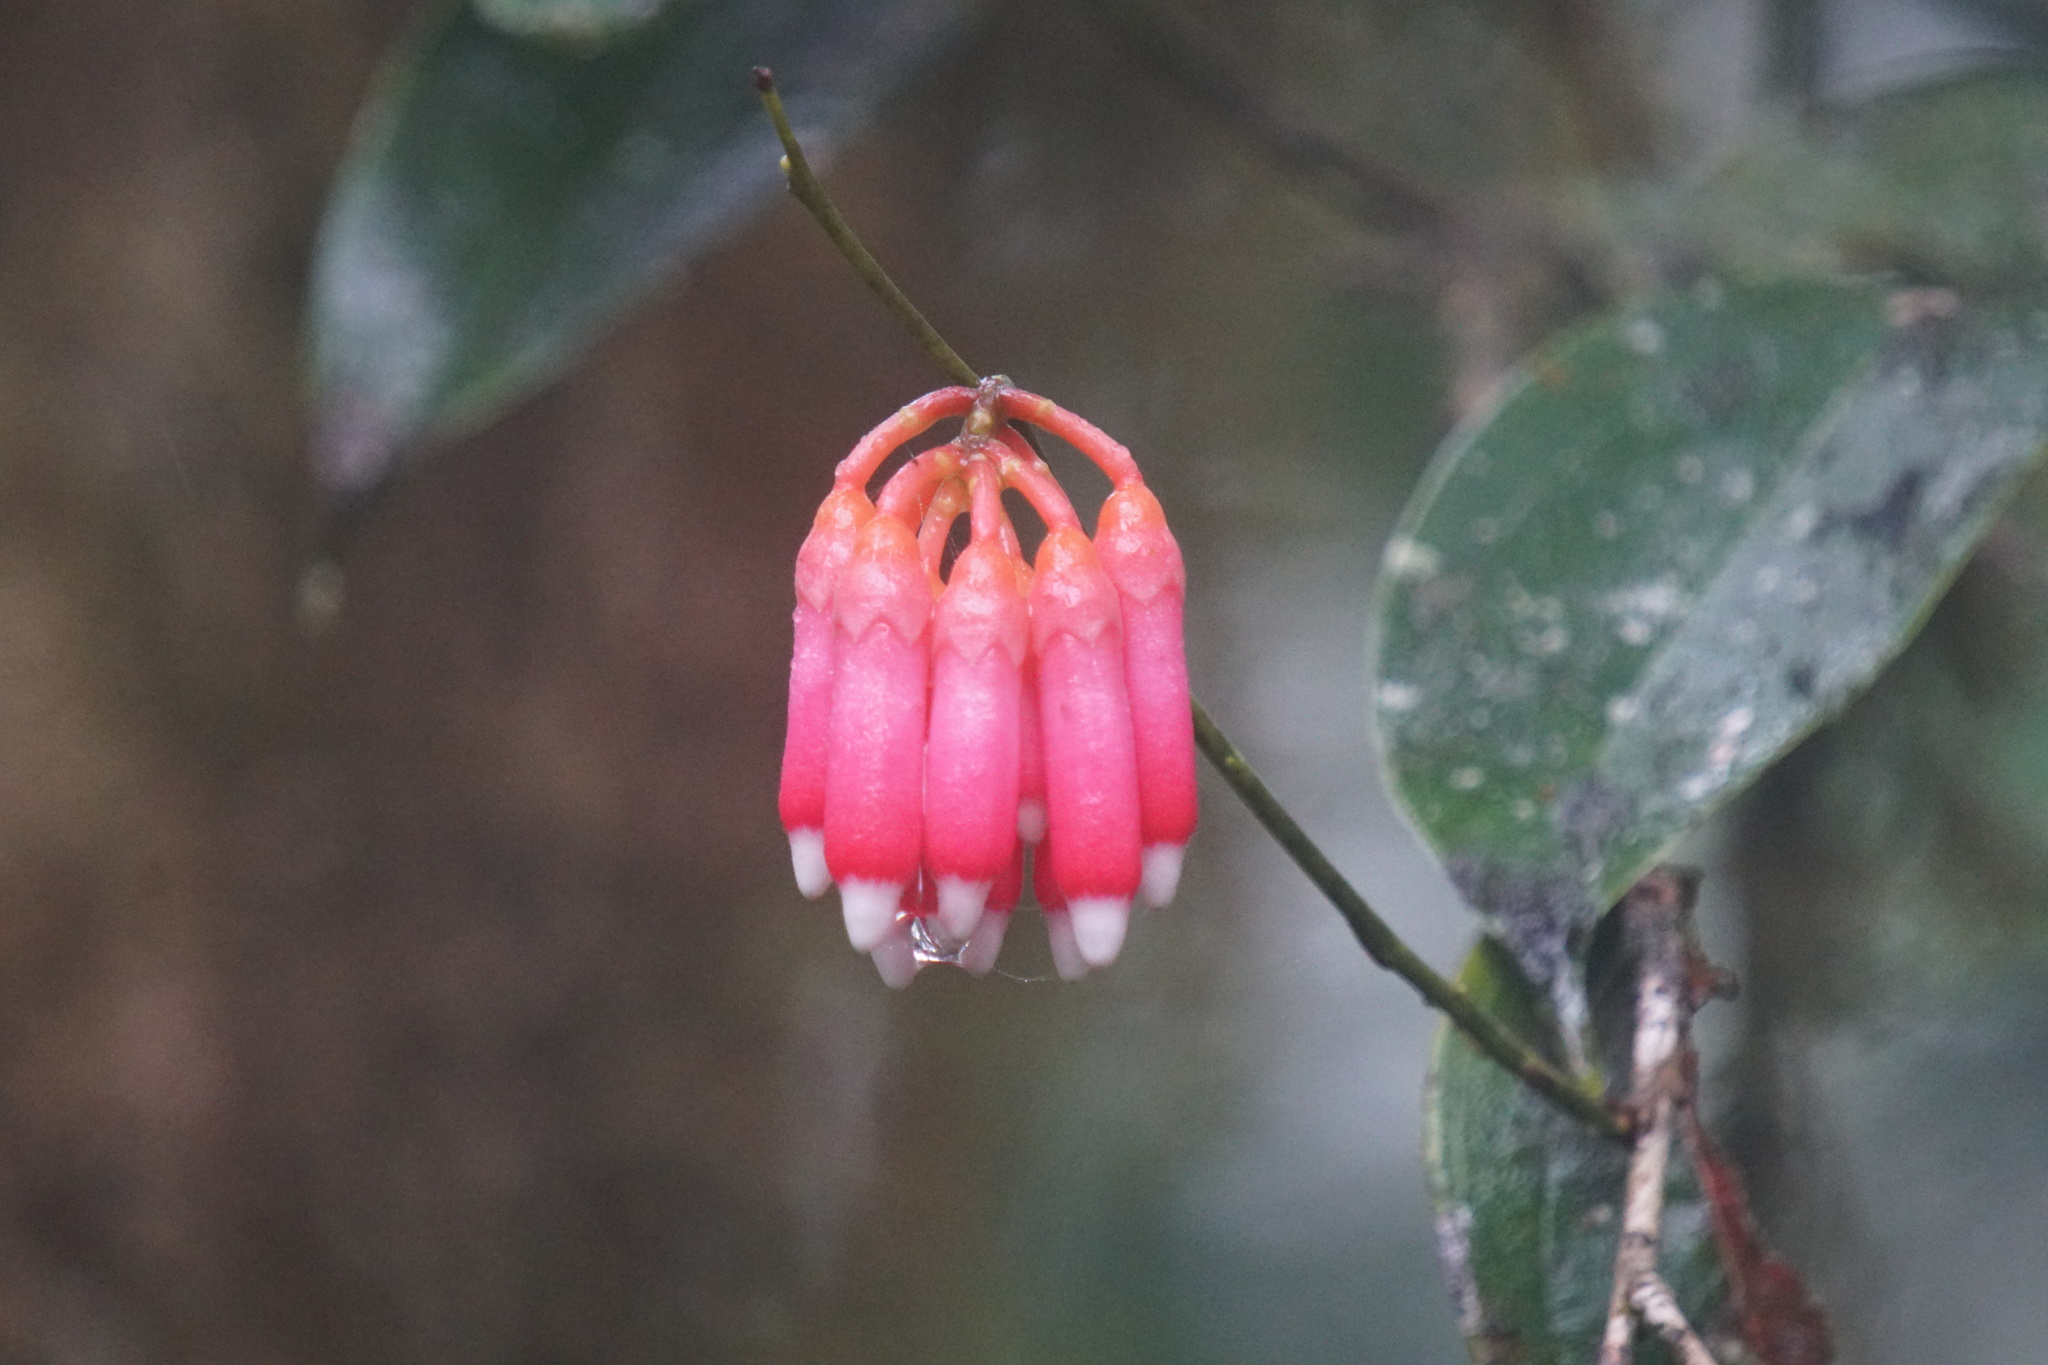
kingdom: Plantae
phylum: Tracheophyta
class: Magnoliopsida
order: Ericales
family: Ericaceae
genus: Psammisia
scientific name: Psammisia ramiflora
